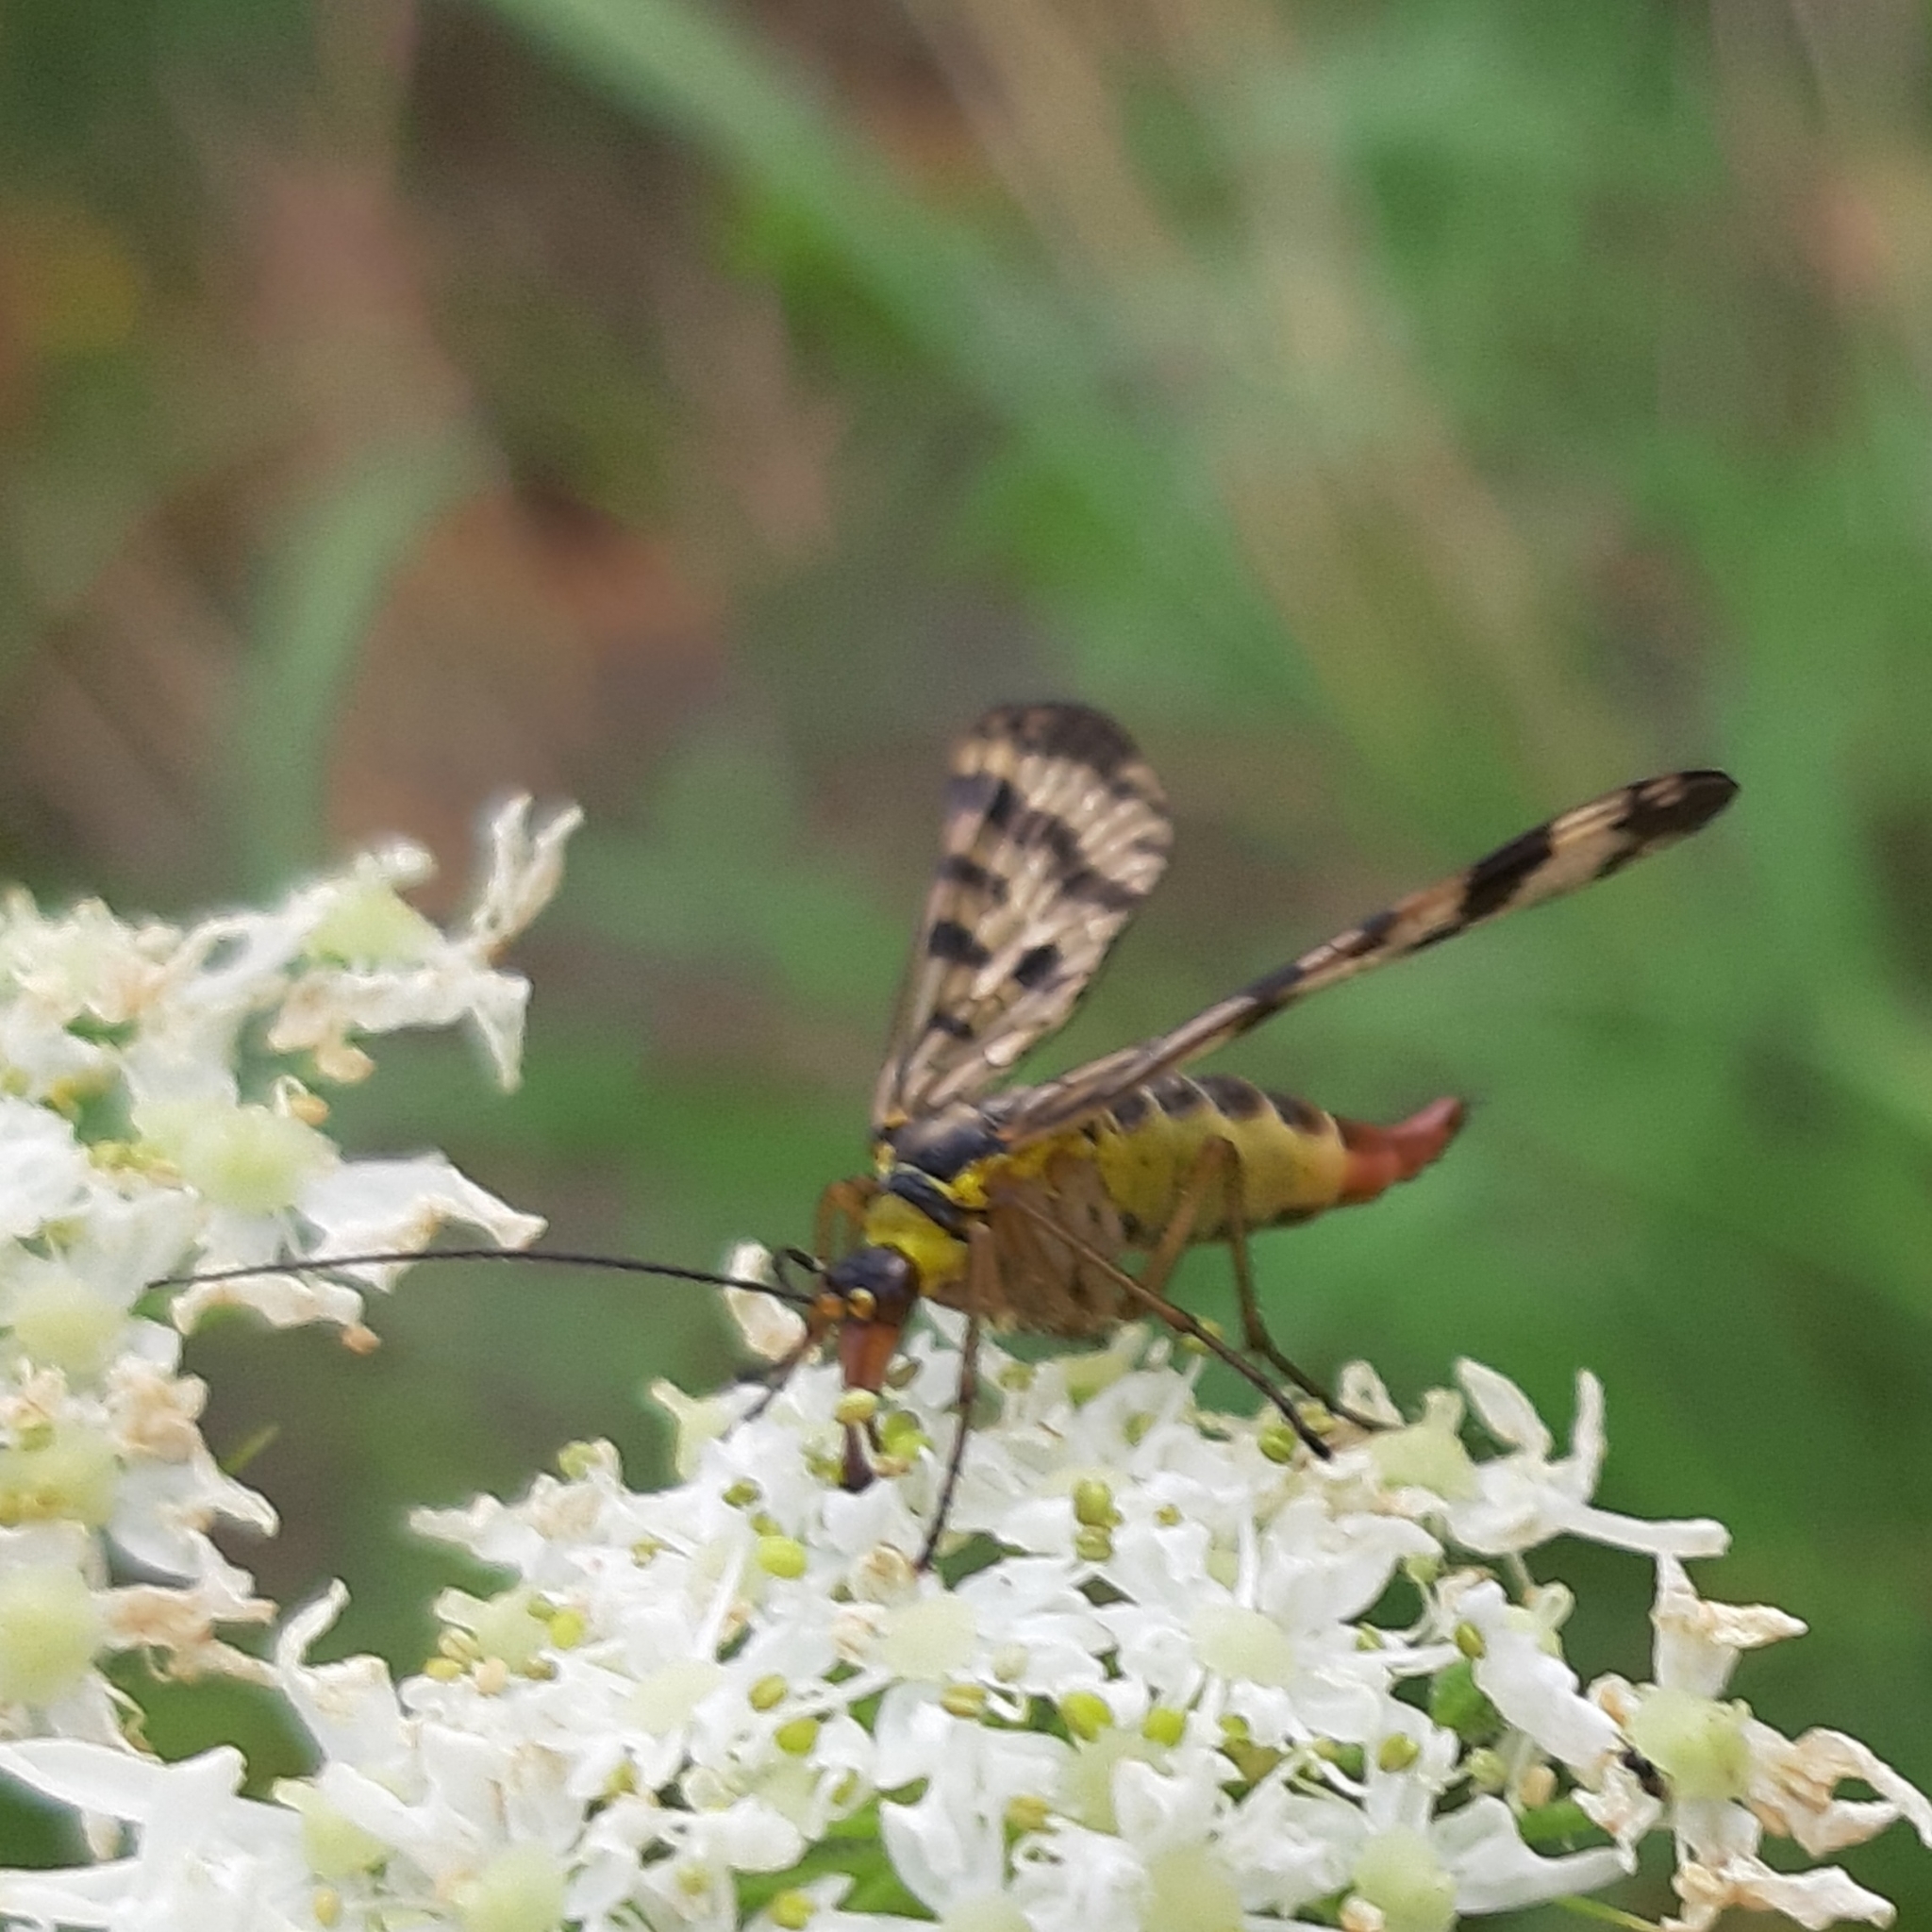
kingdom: Animalia
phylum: Arthropoda
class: Insecta
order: Mecoptera
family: Panorpidae
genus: Panorpa
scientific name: Panorpa communis
